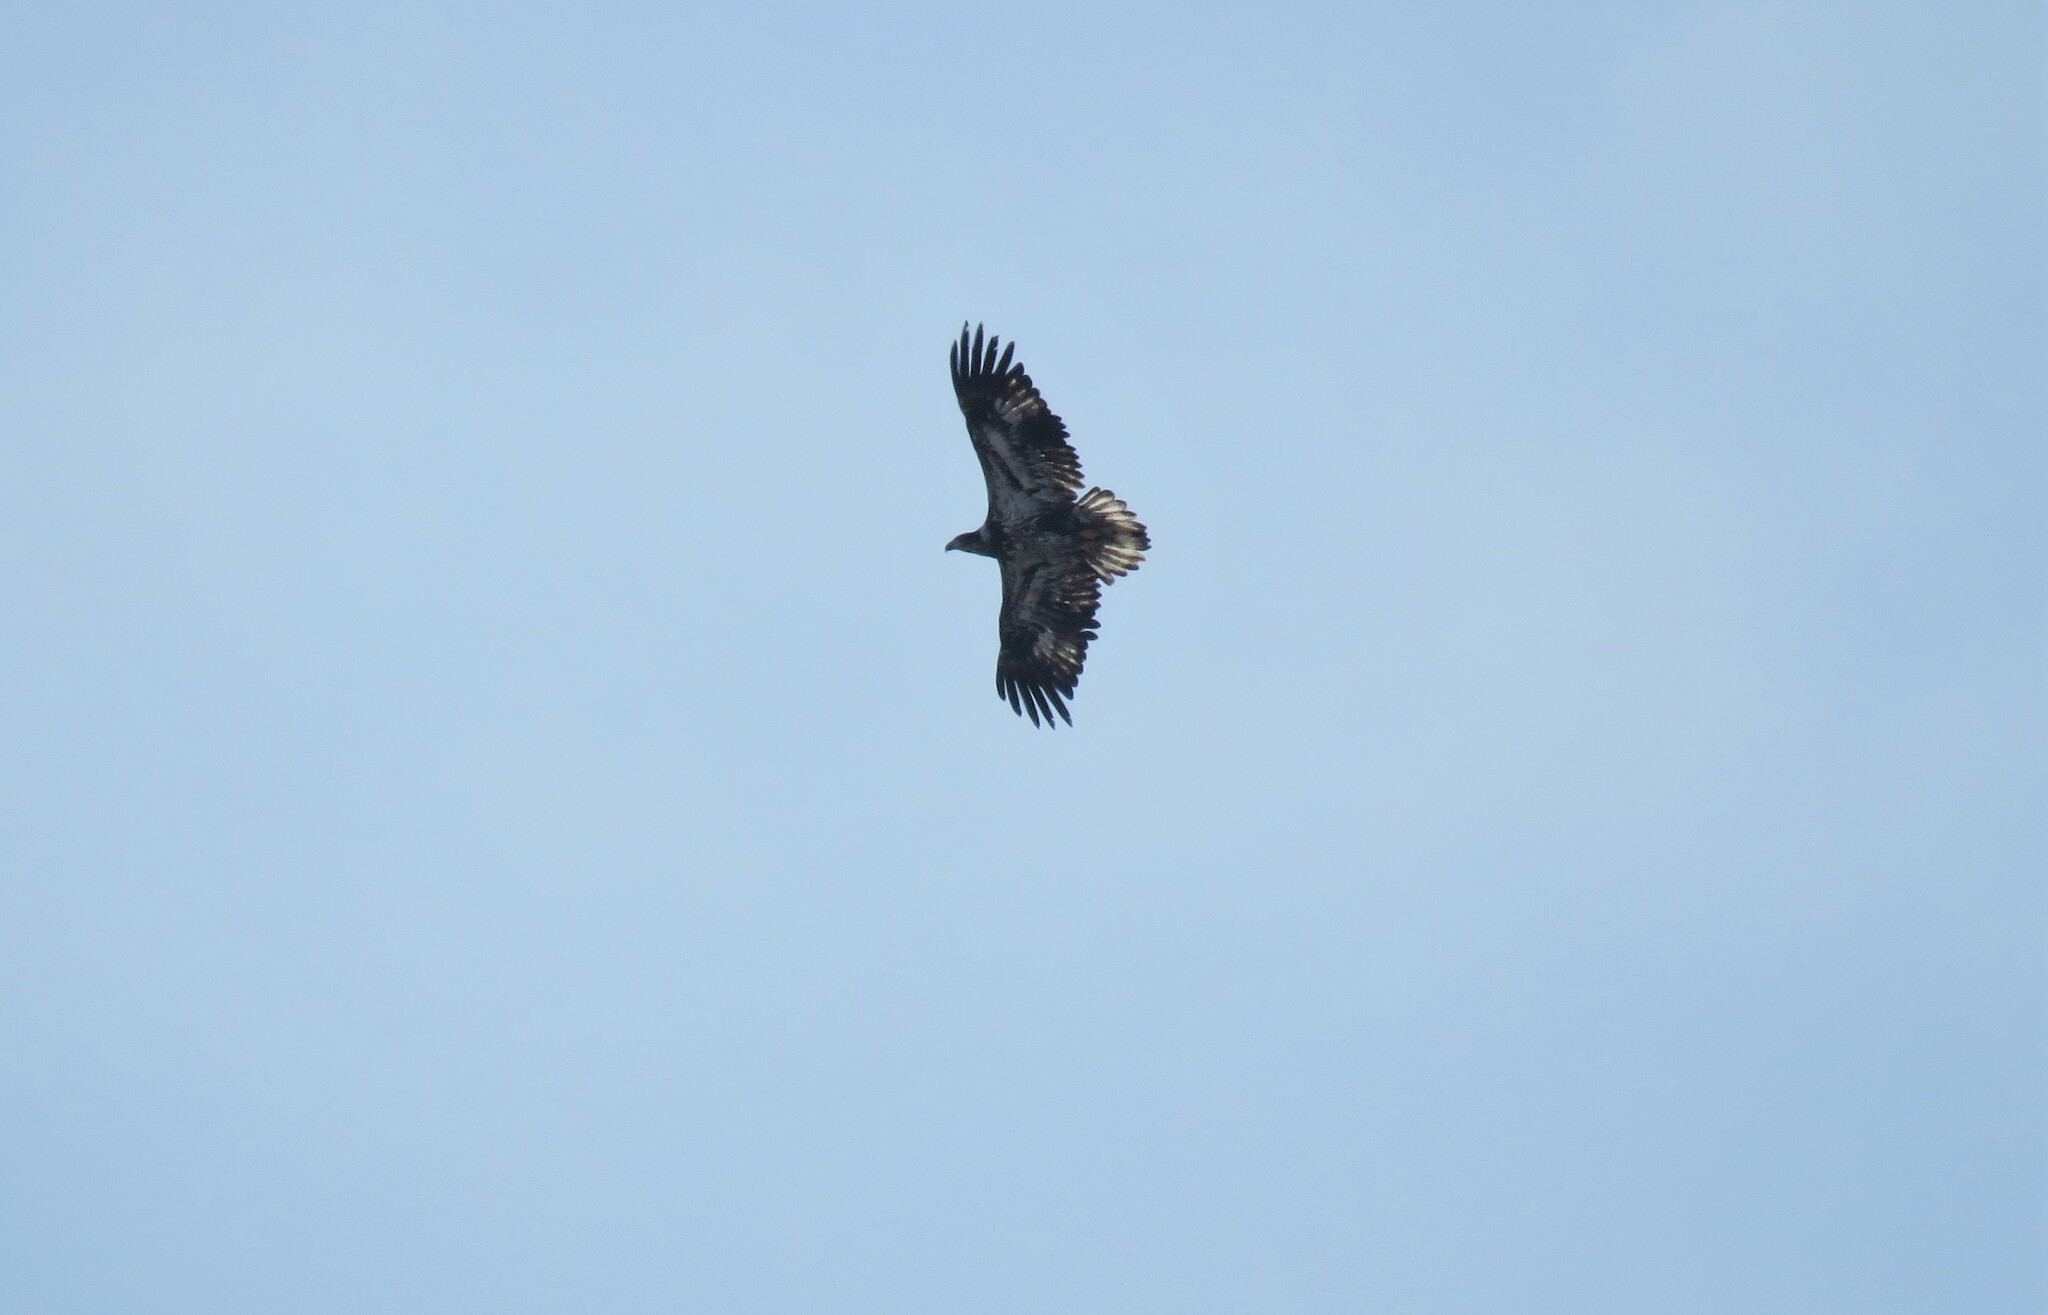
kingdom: Animalia
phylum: Chordata
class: Aves
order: Accipitriformes
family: Accipitridae
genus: Haliaeetus
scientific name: Haliaeetus leucocephalus
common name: Bald eagle
